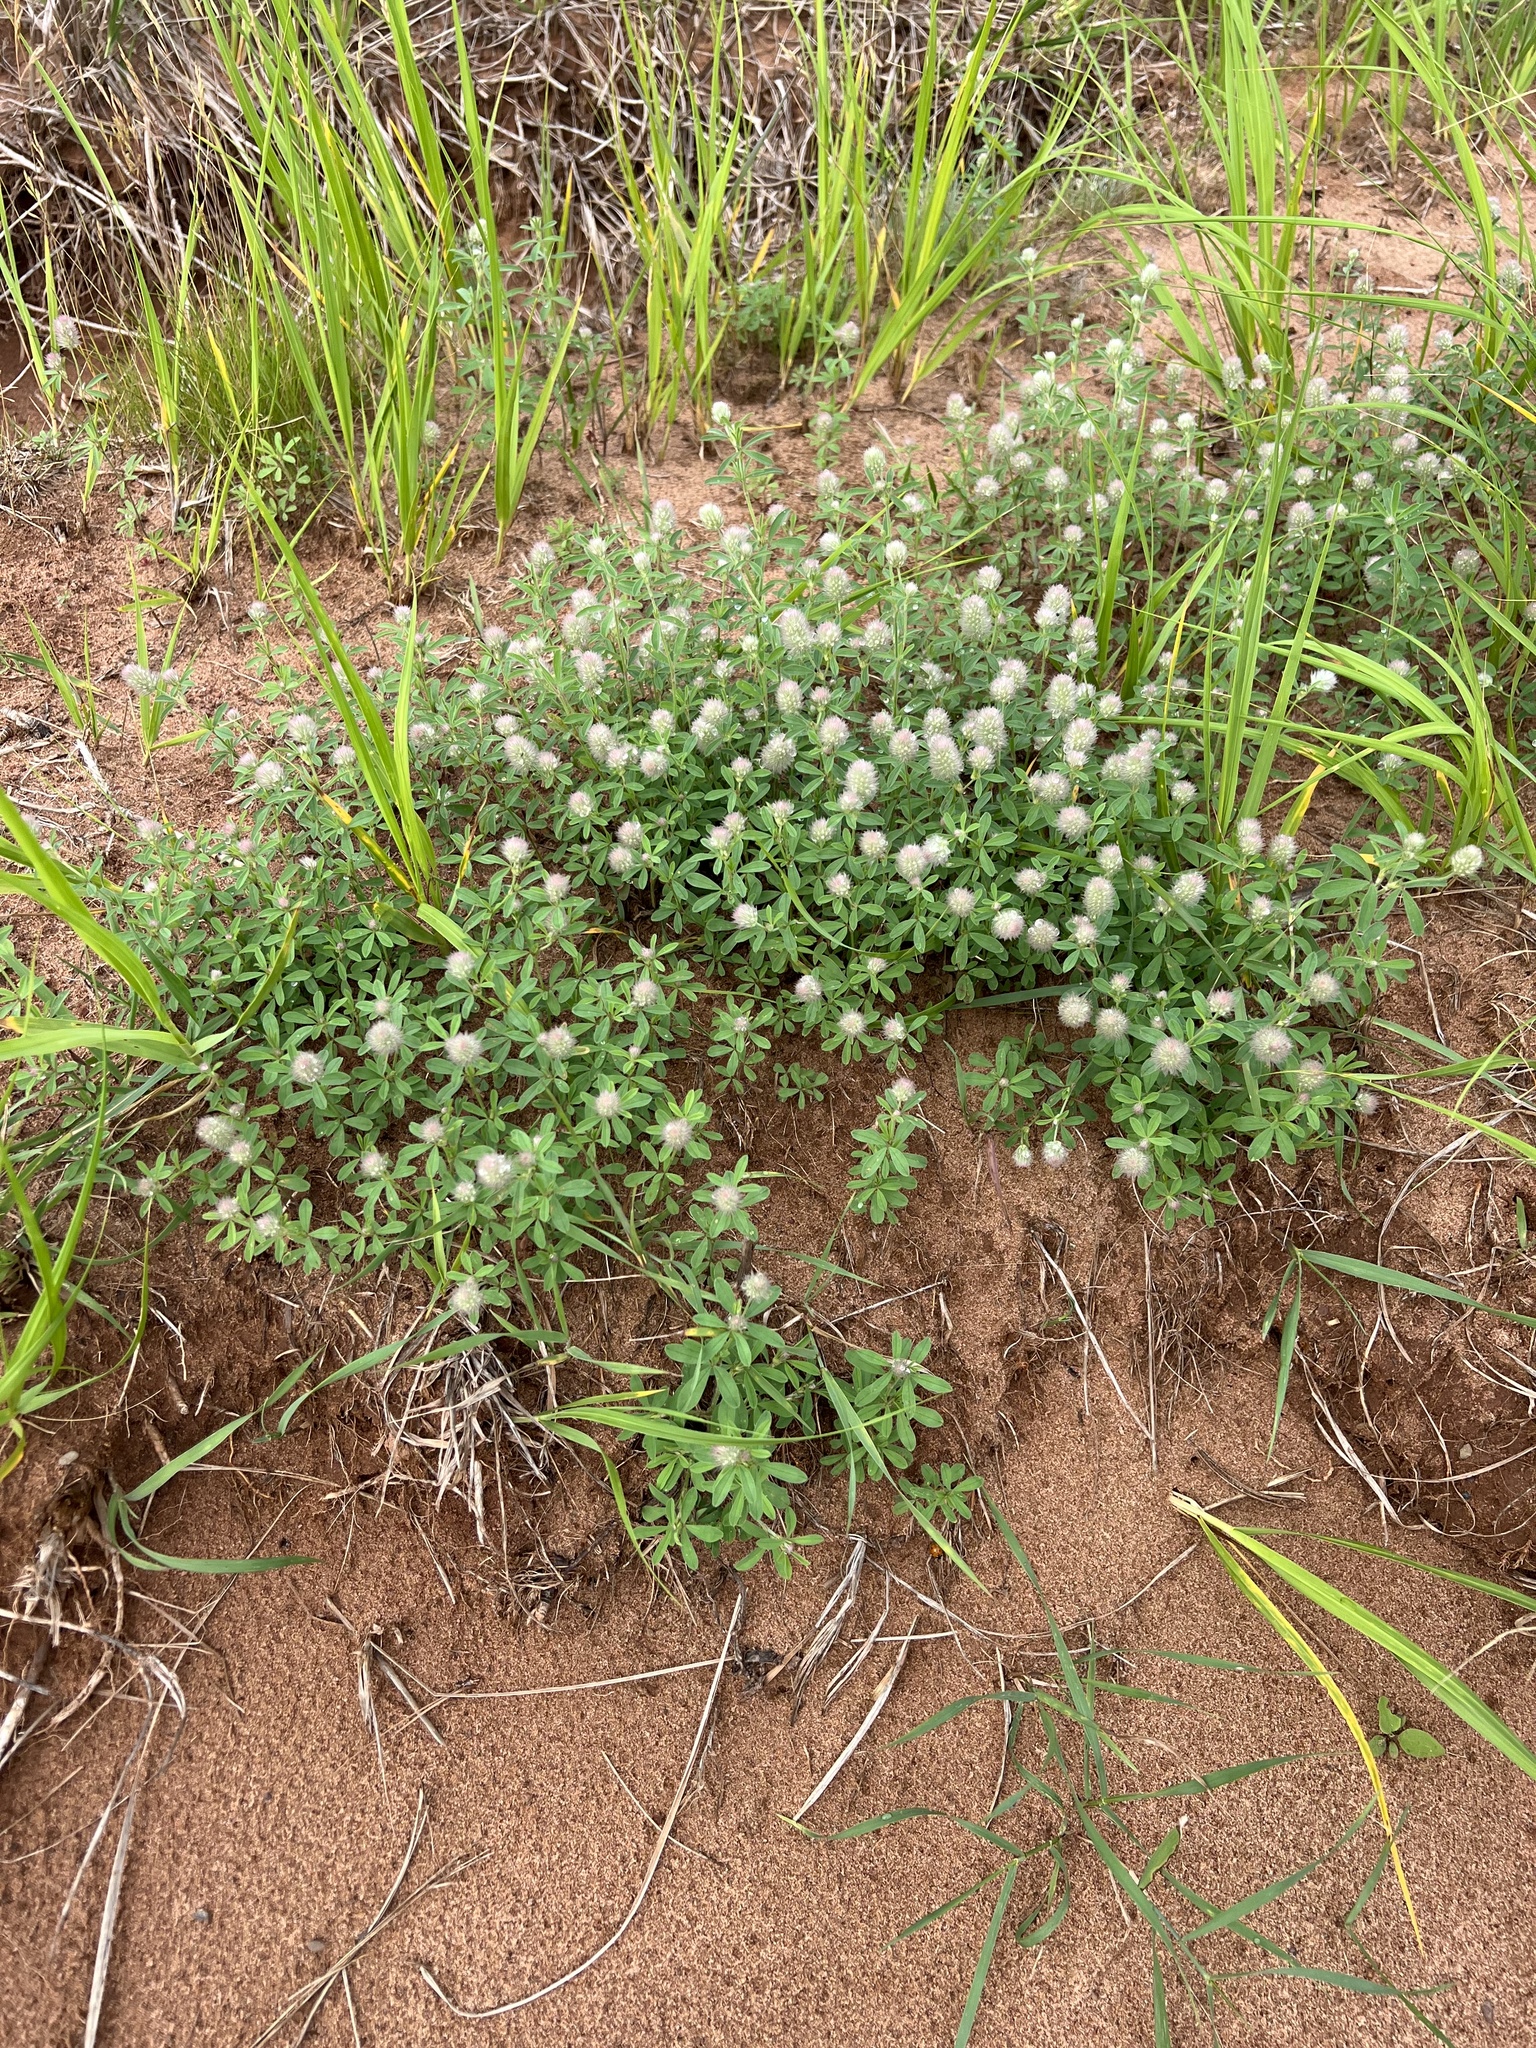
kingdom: Plantae
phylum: Tracheophyta
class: Magnoliopsida
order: Fabales
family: Fabaceae
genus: Trifolium
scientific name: Trifolium arvense
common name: Hare's-foot clover
